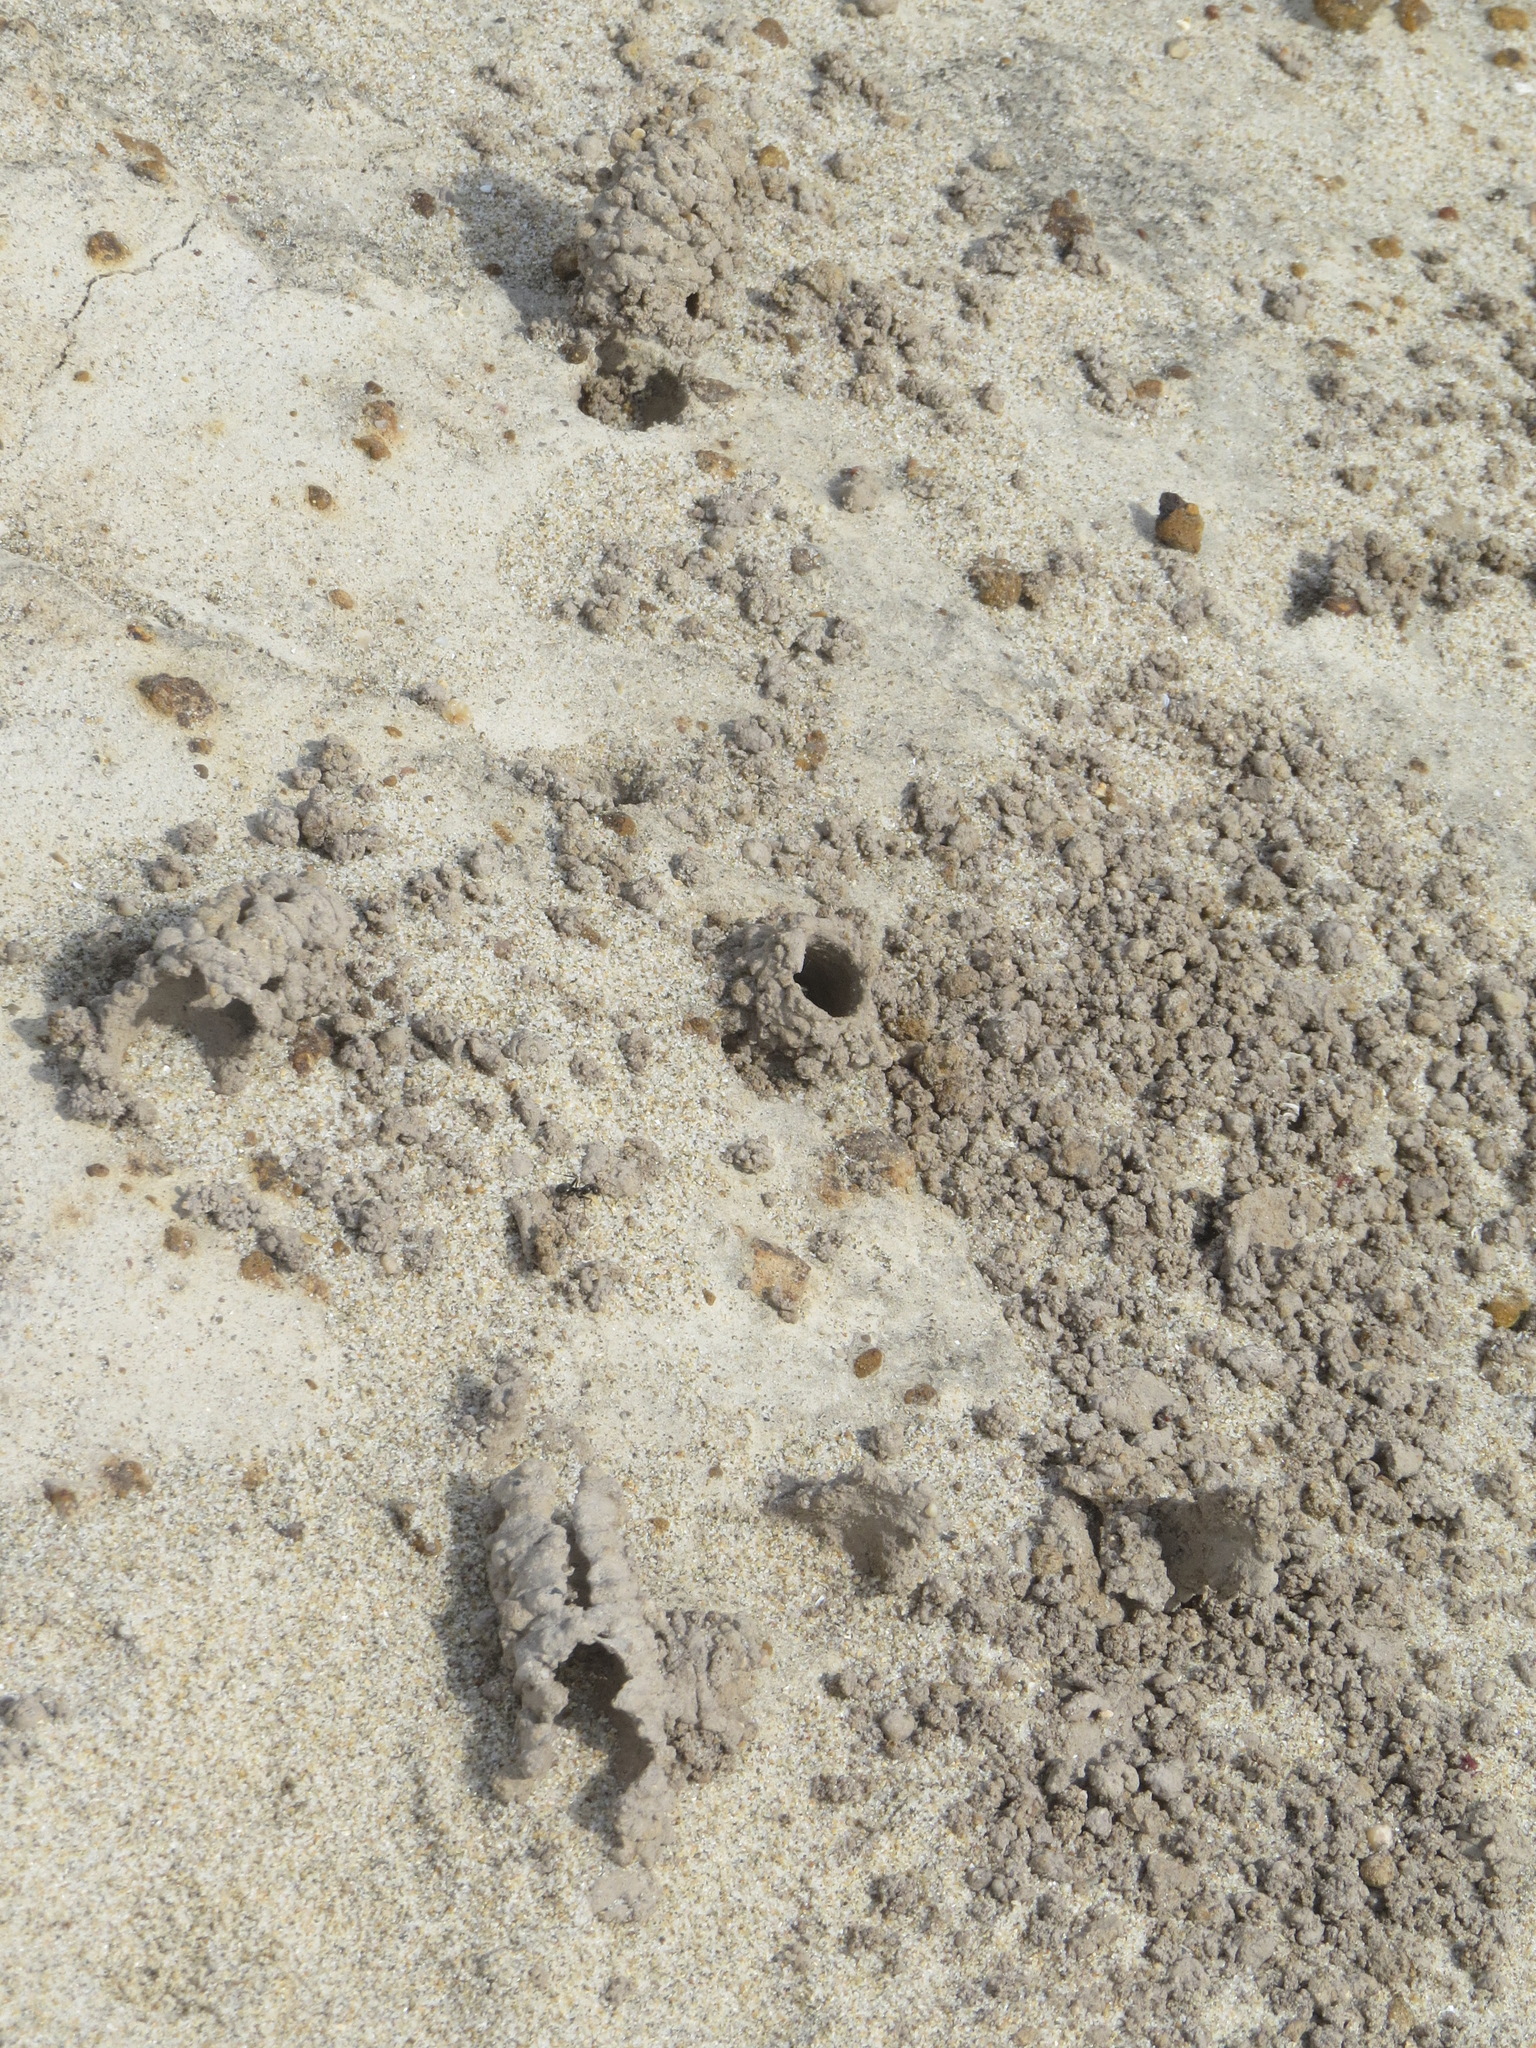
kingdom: Animalia
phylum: Arthropoda
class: Insecta
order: Hymenoptera
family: Apidae
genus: Anthophora
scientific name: Anthophora bomboides
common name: Bumble-bee-mimic digger bee
